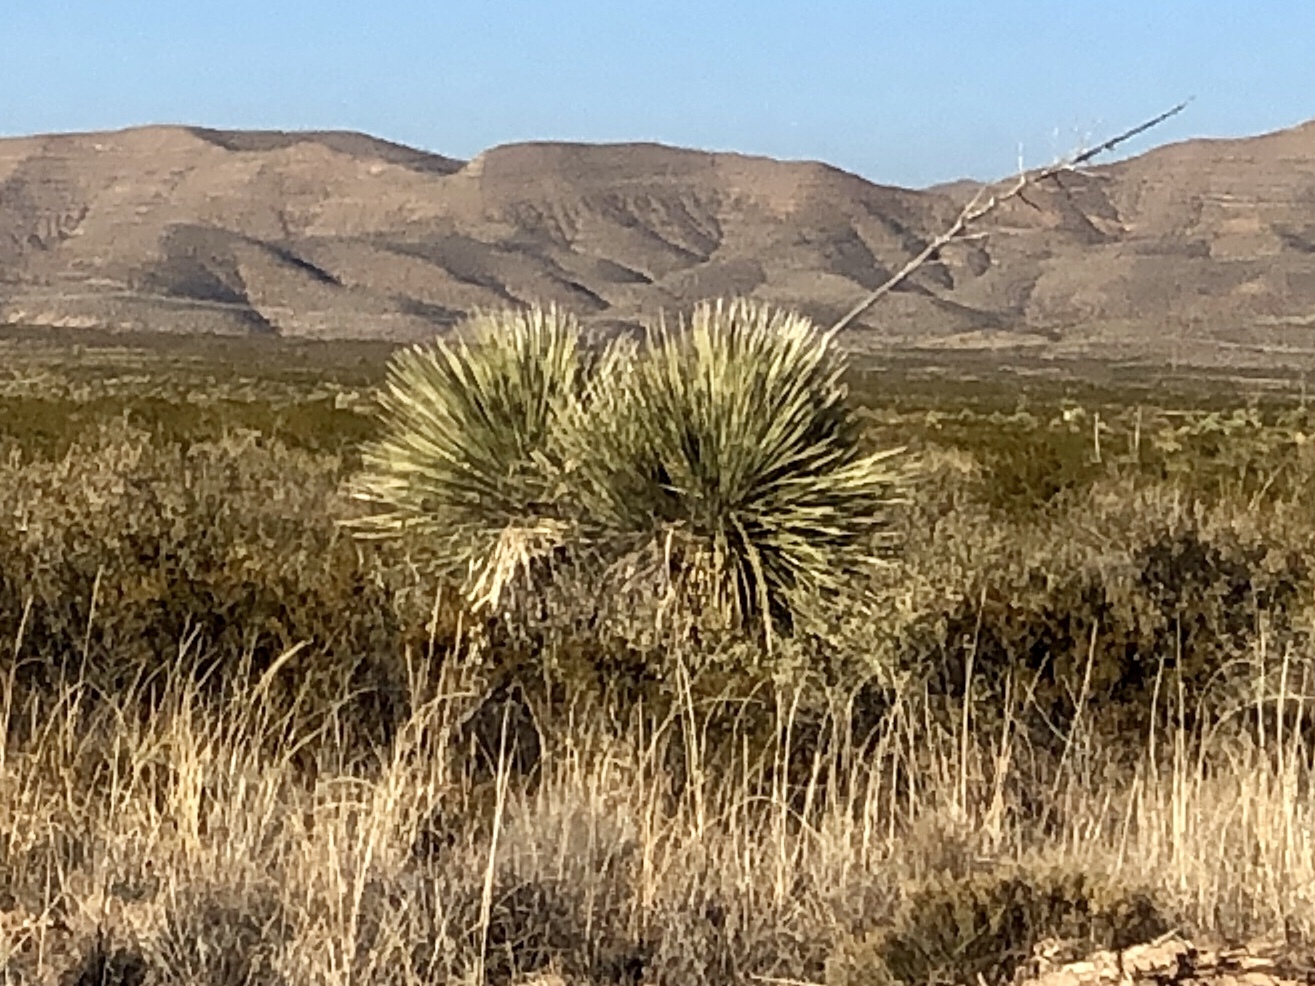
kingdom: Plantae
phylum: Tracheophyta
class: Liliopsida
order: Asparagales
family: Asparagaceae
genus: Yucca
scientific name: Yucca elata
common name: Palmella
